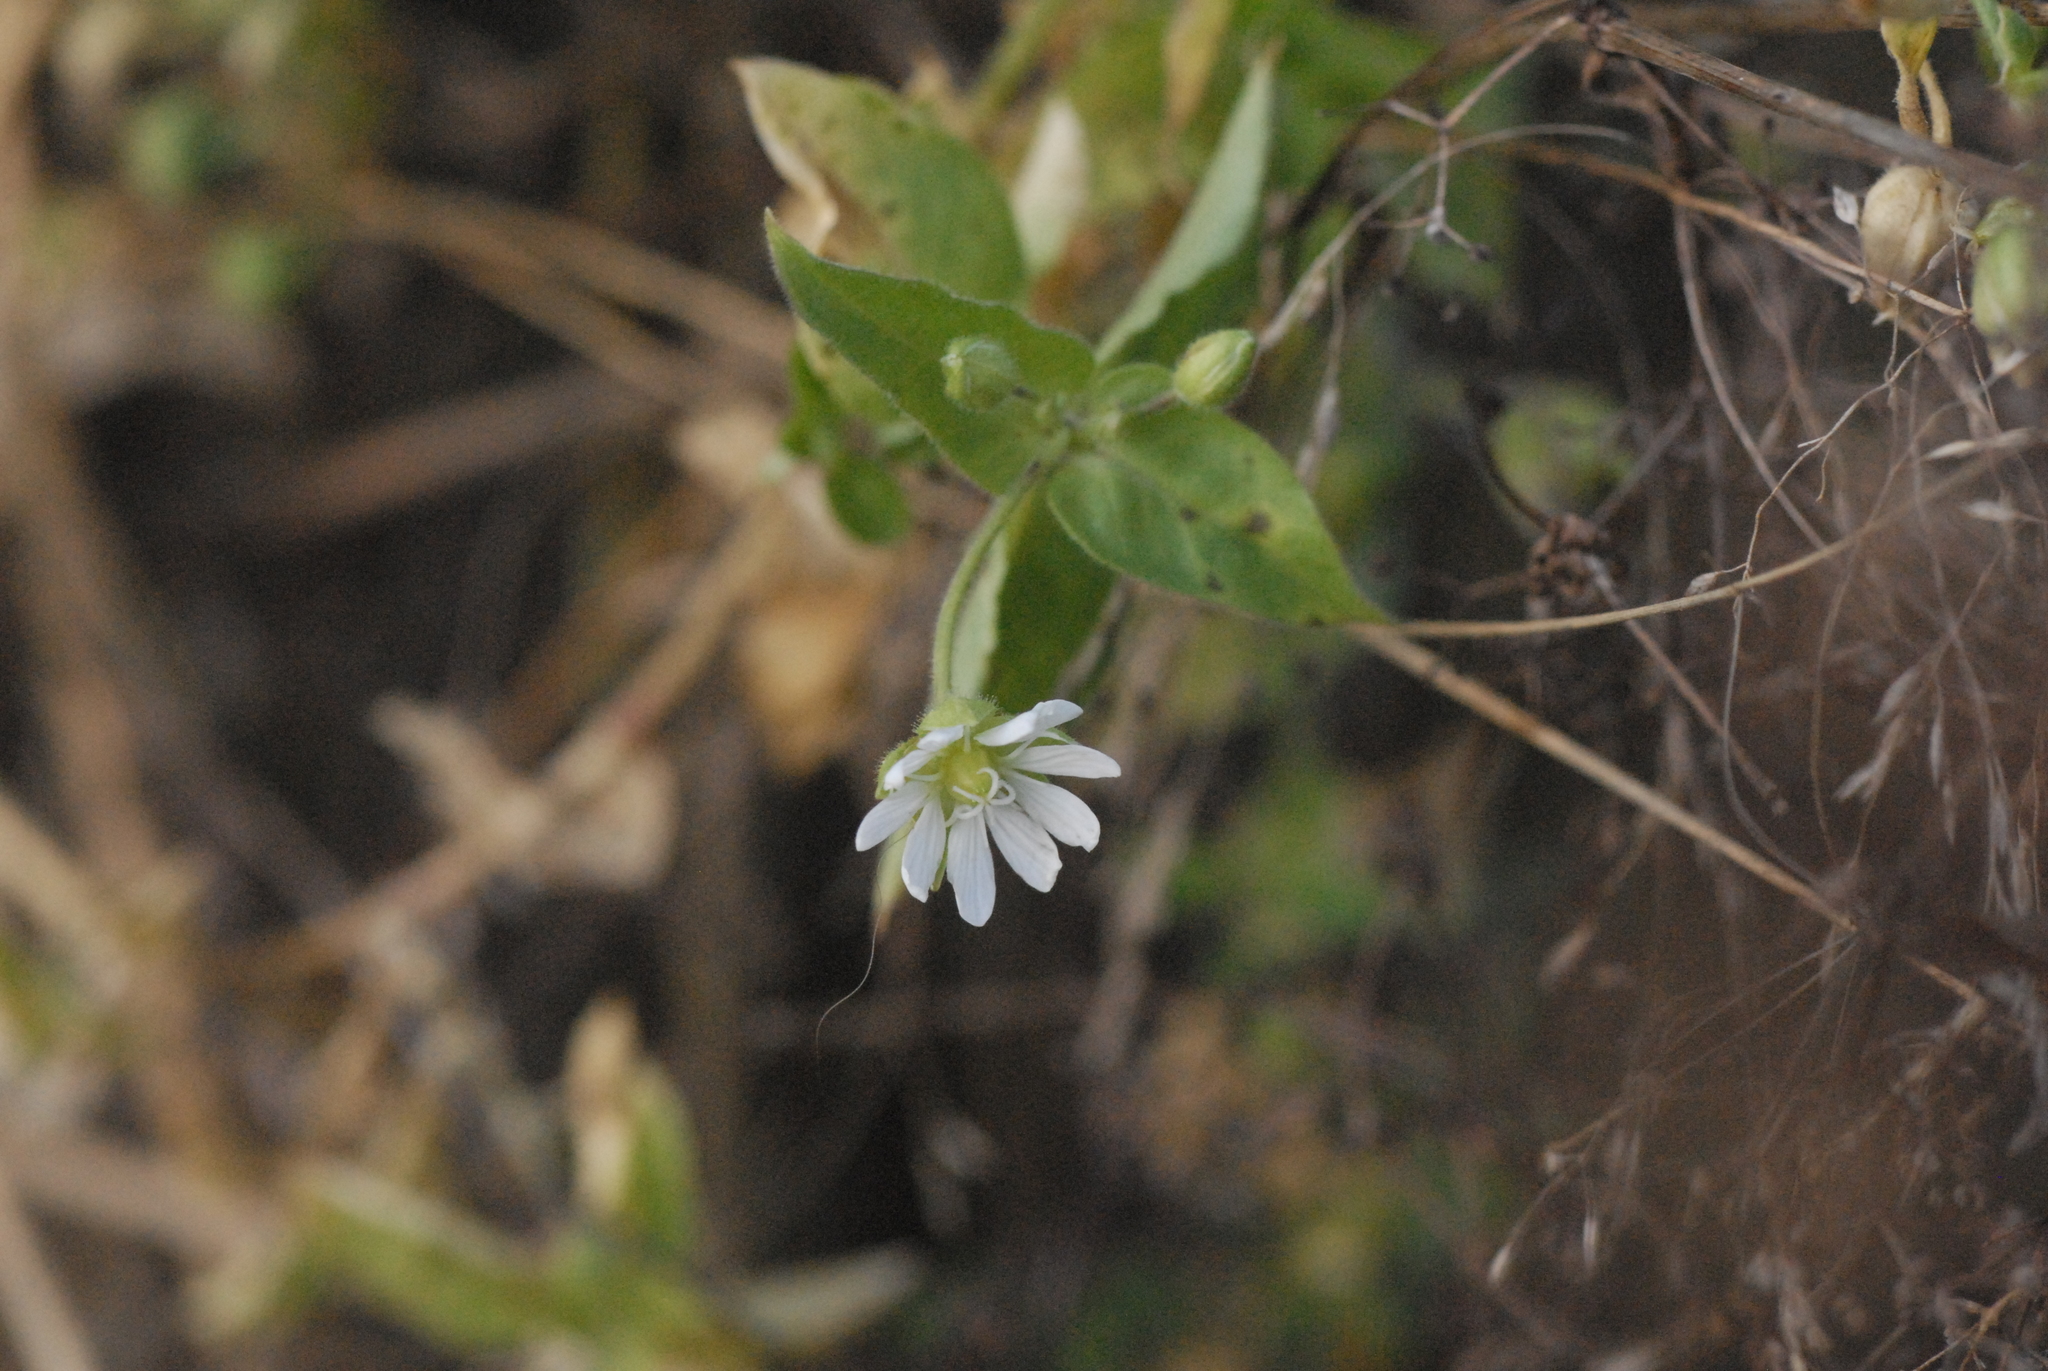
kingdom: Plantae
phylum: Tracheophyta
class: Magnoliopsida
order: Caryophyllales
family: Caryophyllaceae
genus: Stellaria
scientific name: Stellaria aquatica
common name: Water chickweed
